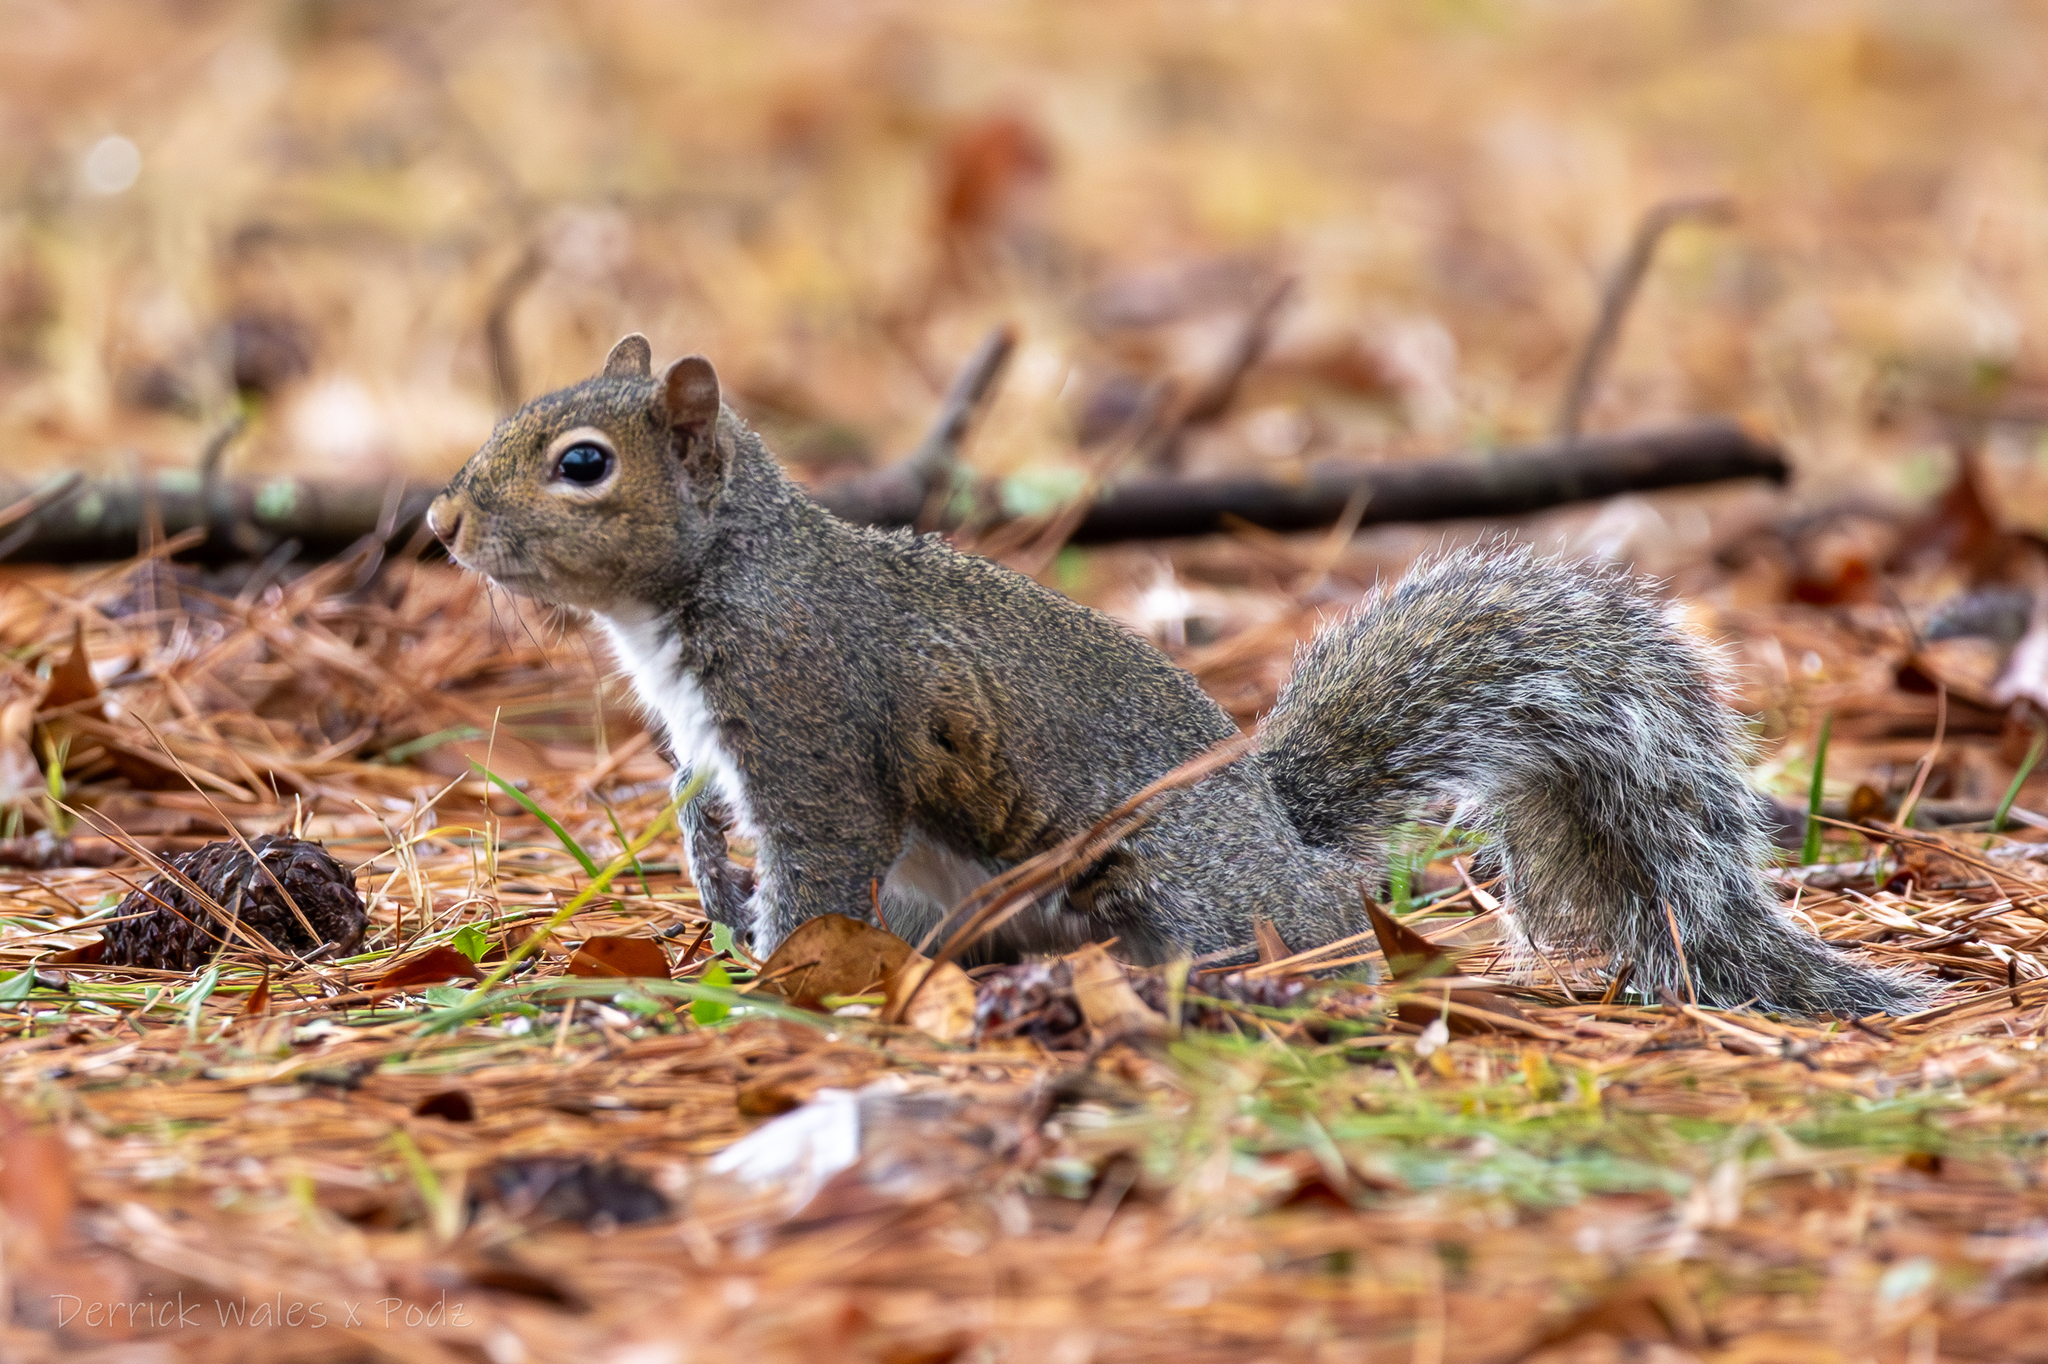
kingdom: Animalia
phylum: Chordata
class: Mammalia
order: Rodentia
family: Sciuridae
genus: Sciurus
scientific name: Sciurus carolinensis
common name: Eastern gray squirrel
